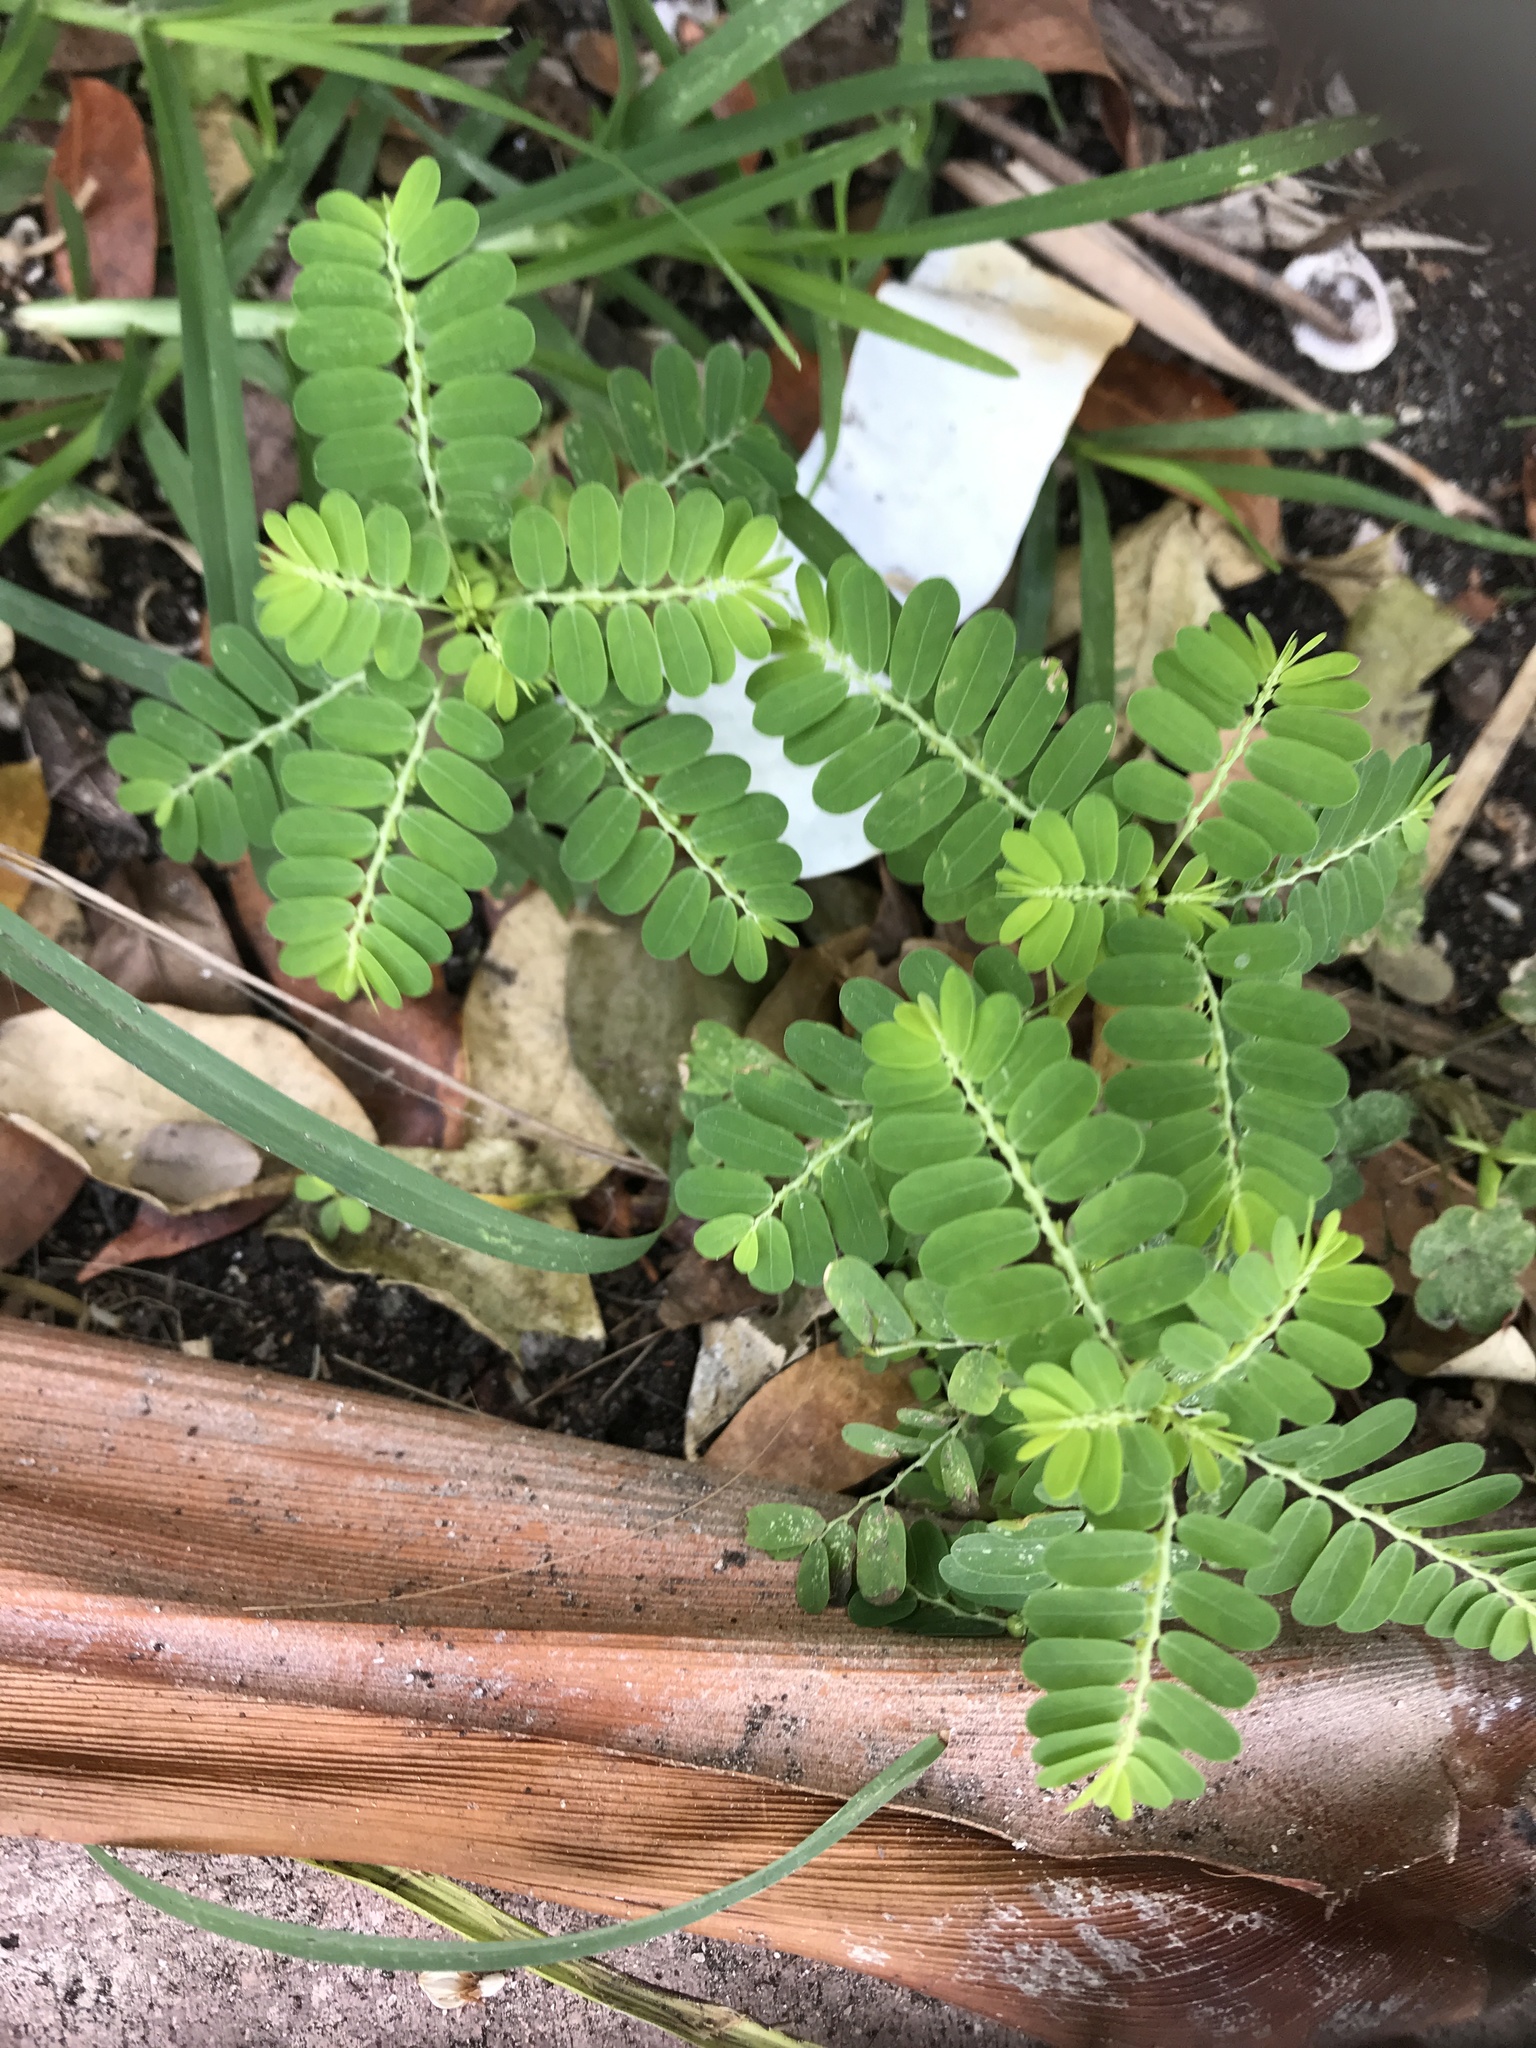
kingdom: Plantae
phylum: Tracheophyta
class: Magnoliopsida
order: Malpighiales
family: Phyllanthaceae
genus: Phyllanthus
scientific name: Phyllanthus urinaria
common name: Chamber bitter
